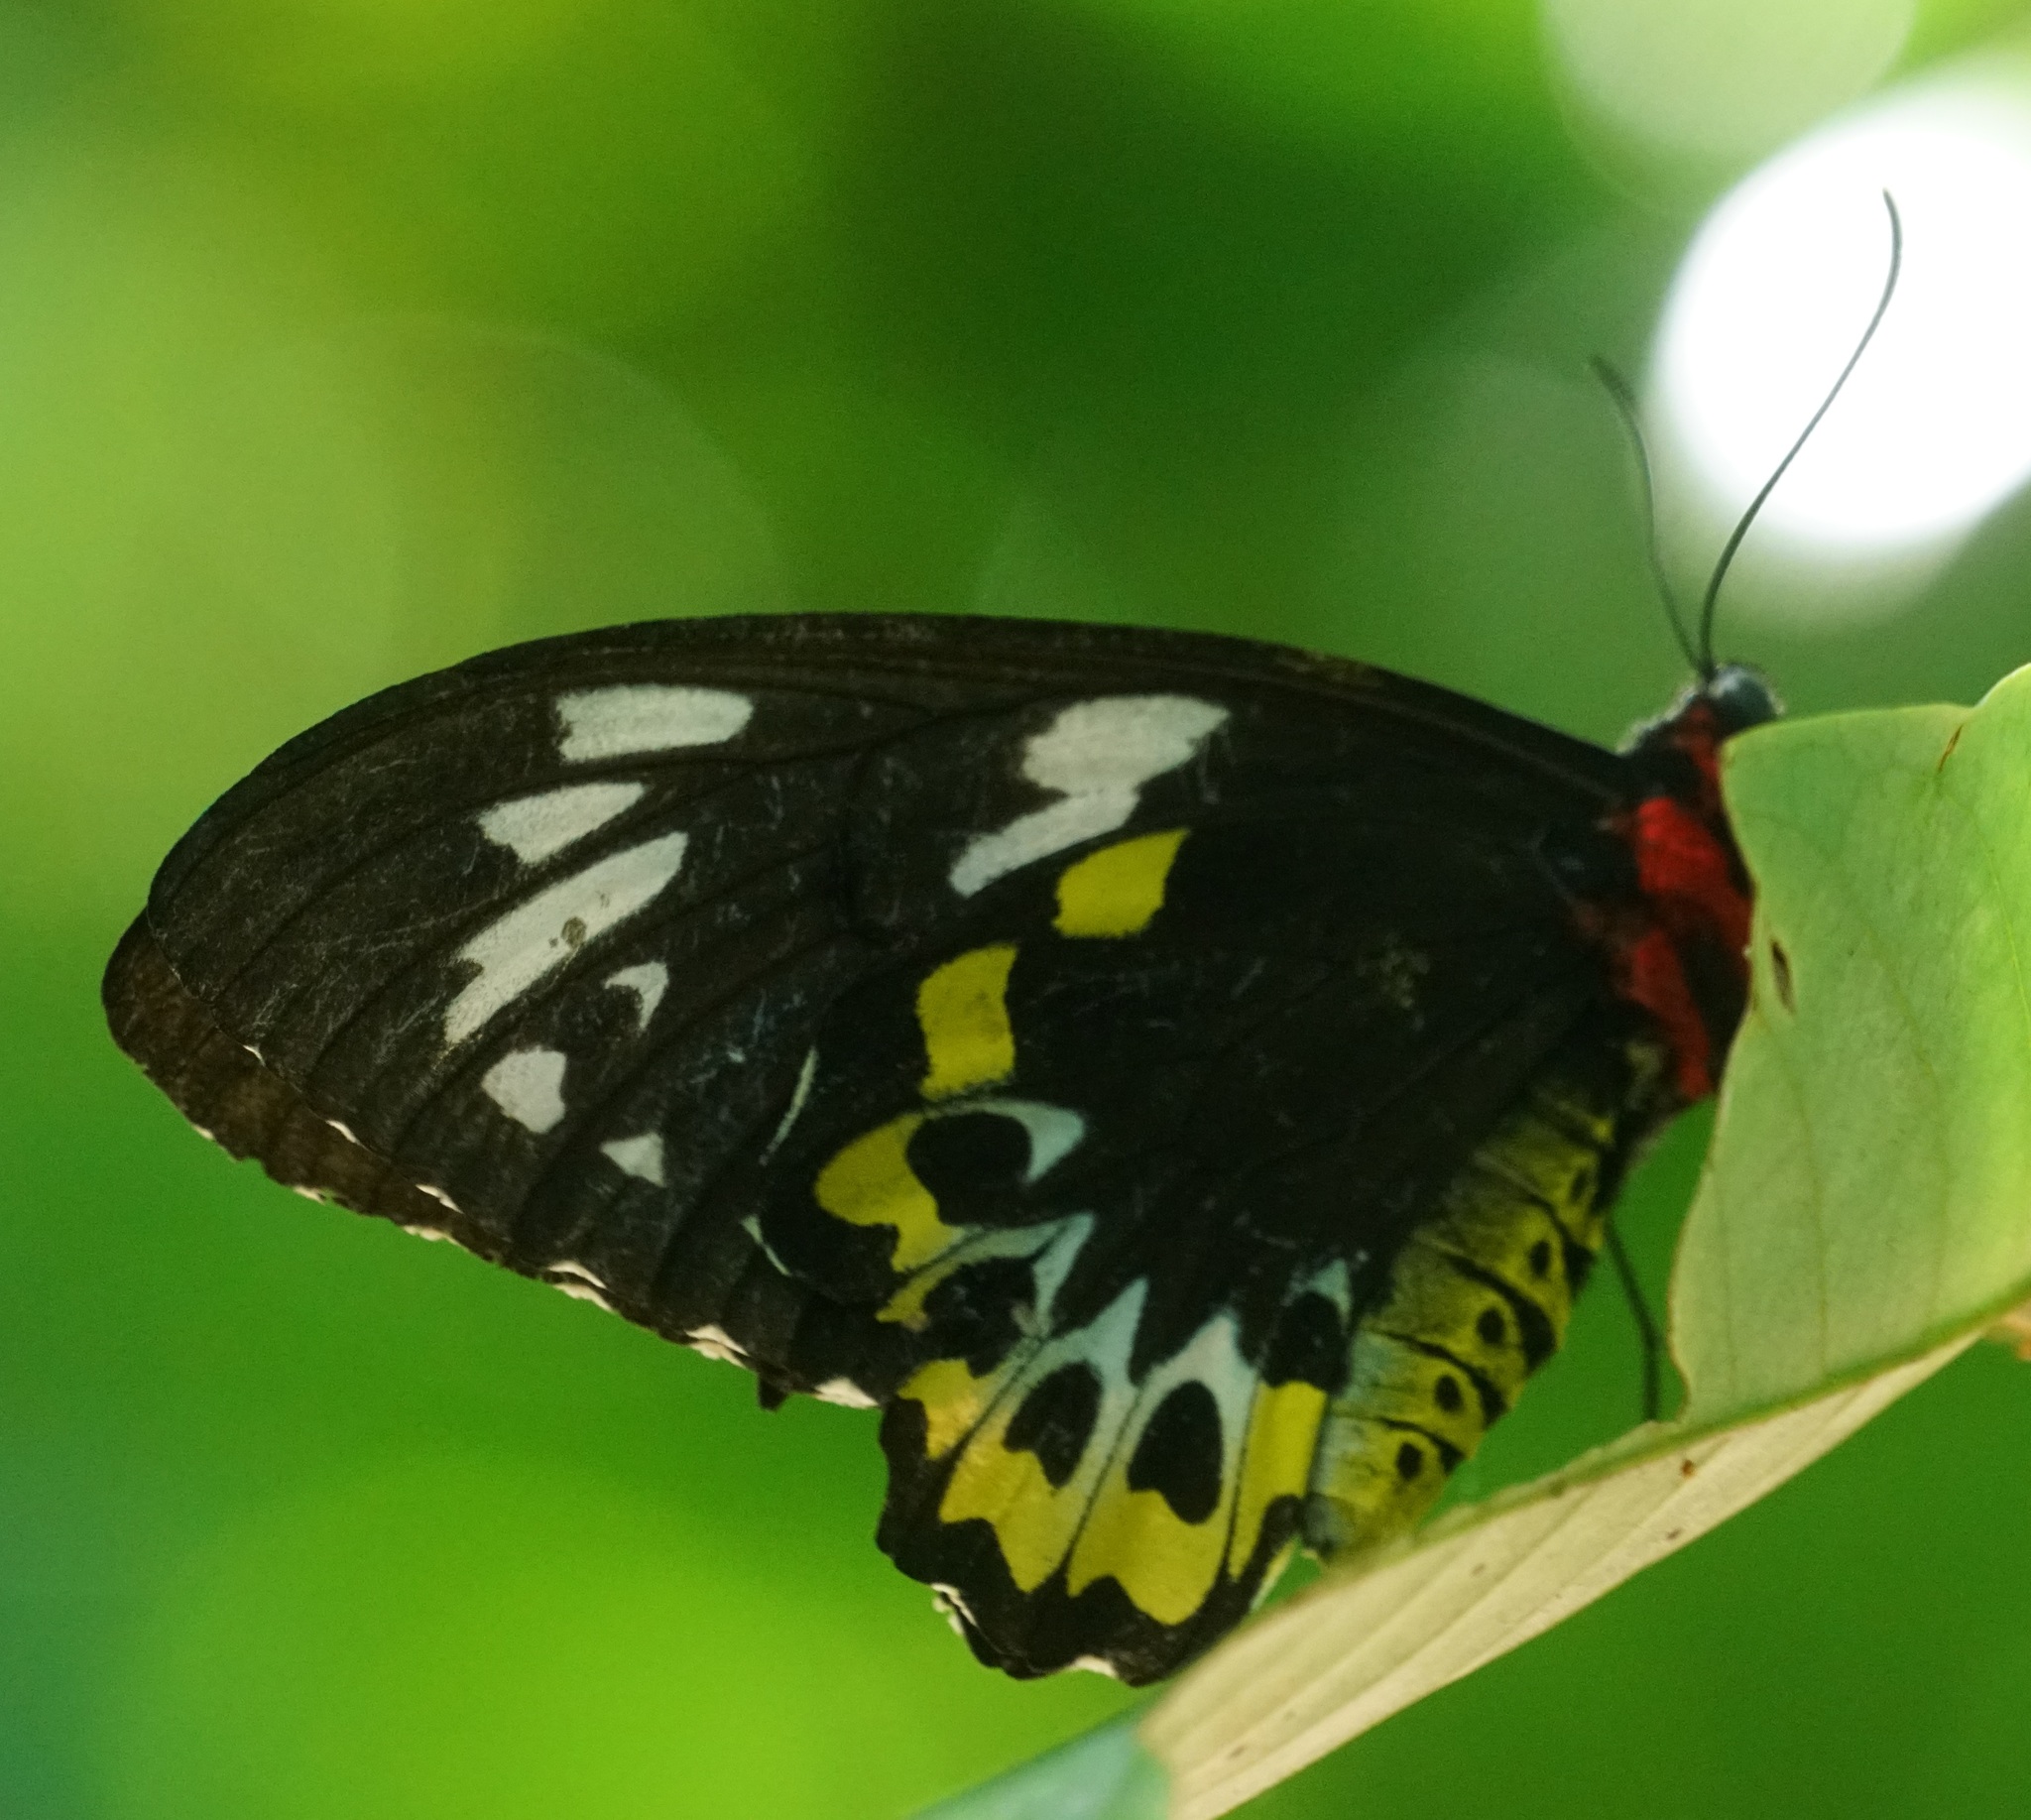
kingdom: Animalia
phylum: Arthropoda
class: Insecta
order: Lepidoptera
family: Papilionidae
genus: Ornithoptera
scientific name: Ornithoptera euphorion
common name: Cairns birdwing
